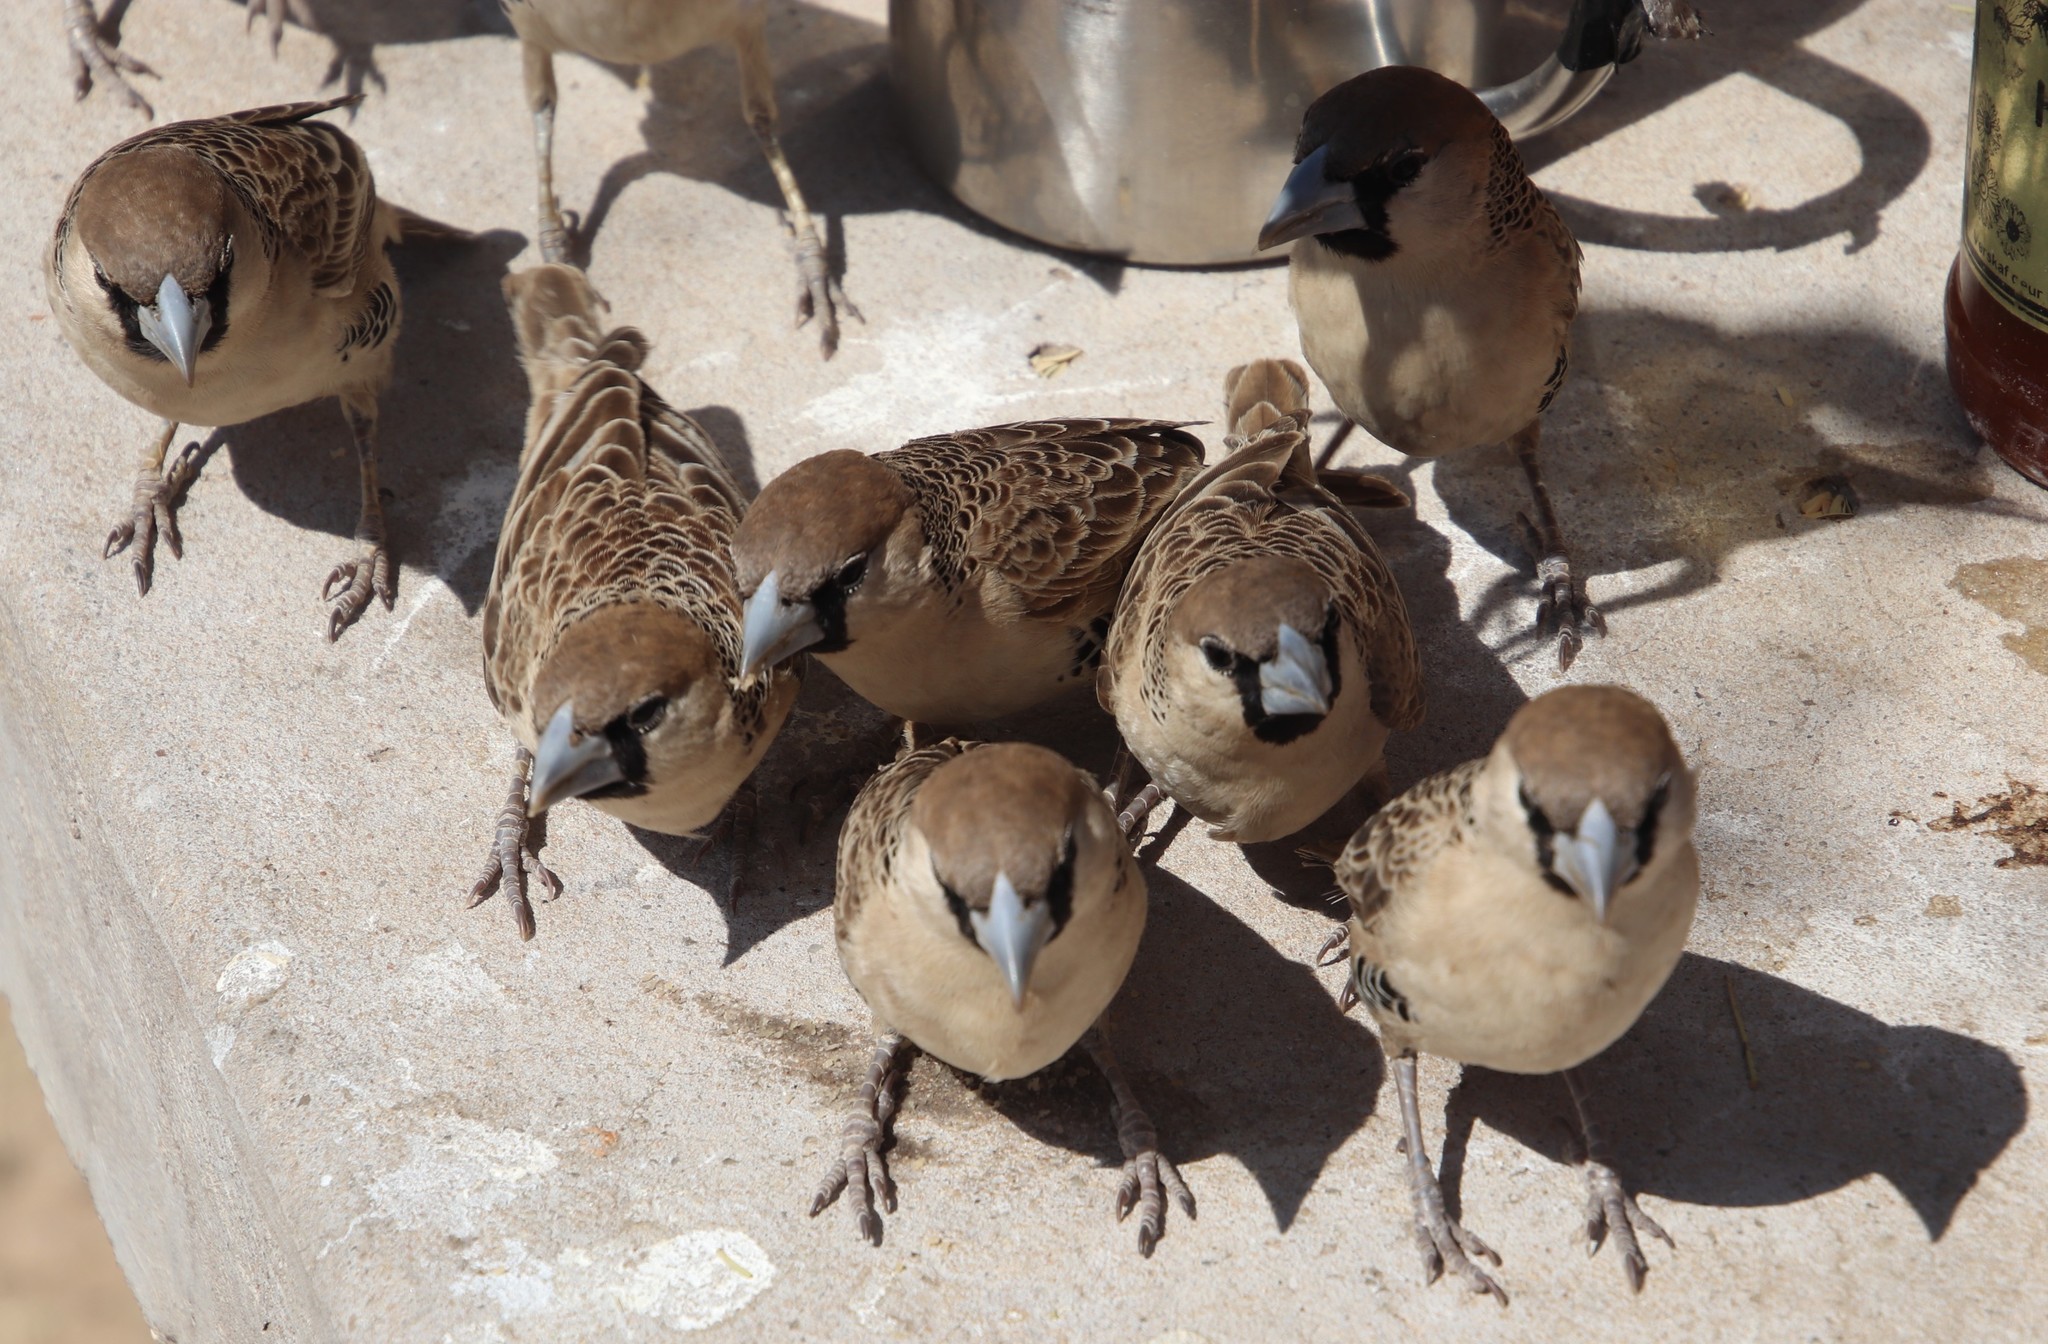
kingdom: Animalia
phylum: Chordata
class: Aves
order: Passeriformes
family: Passeridae
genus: Philetairus
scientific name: Philetairus socius
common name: Sociable weaver
